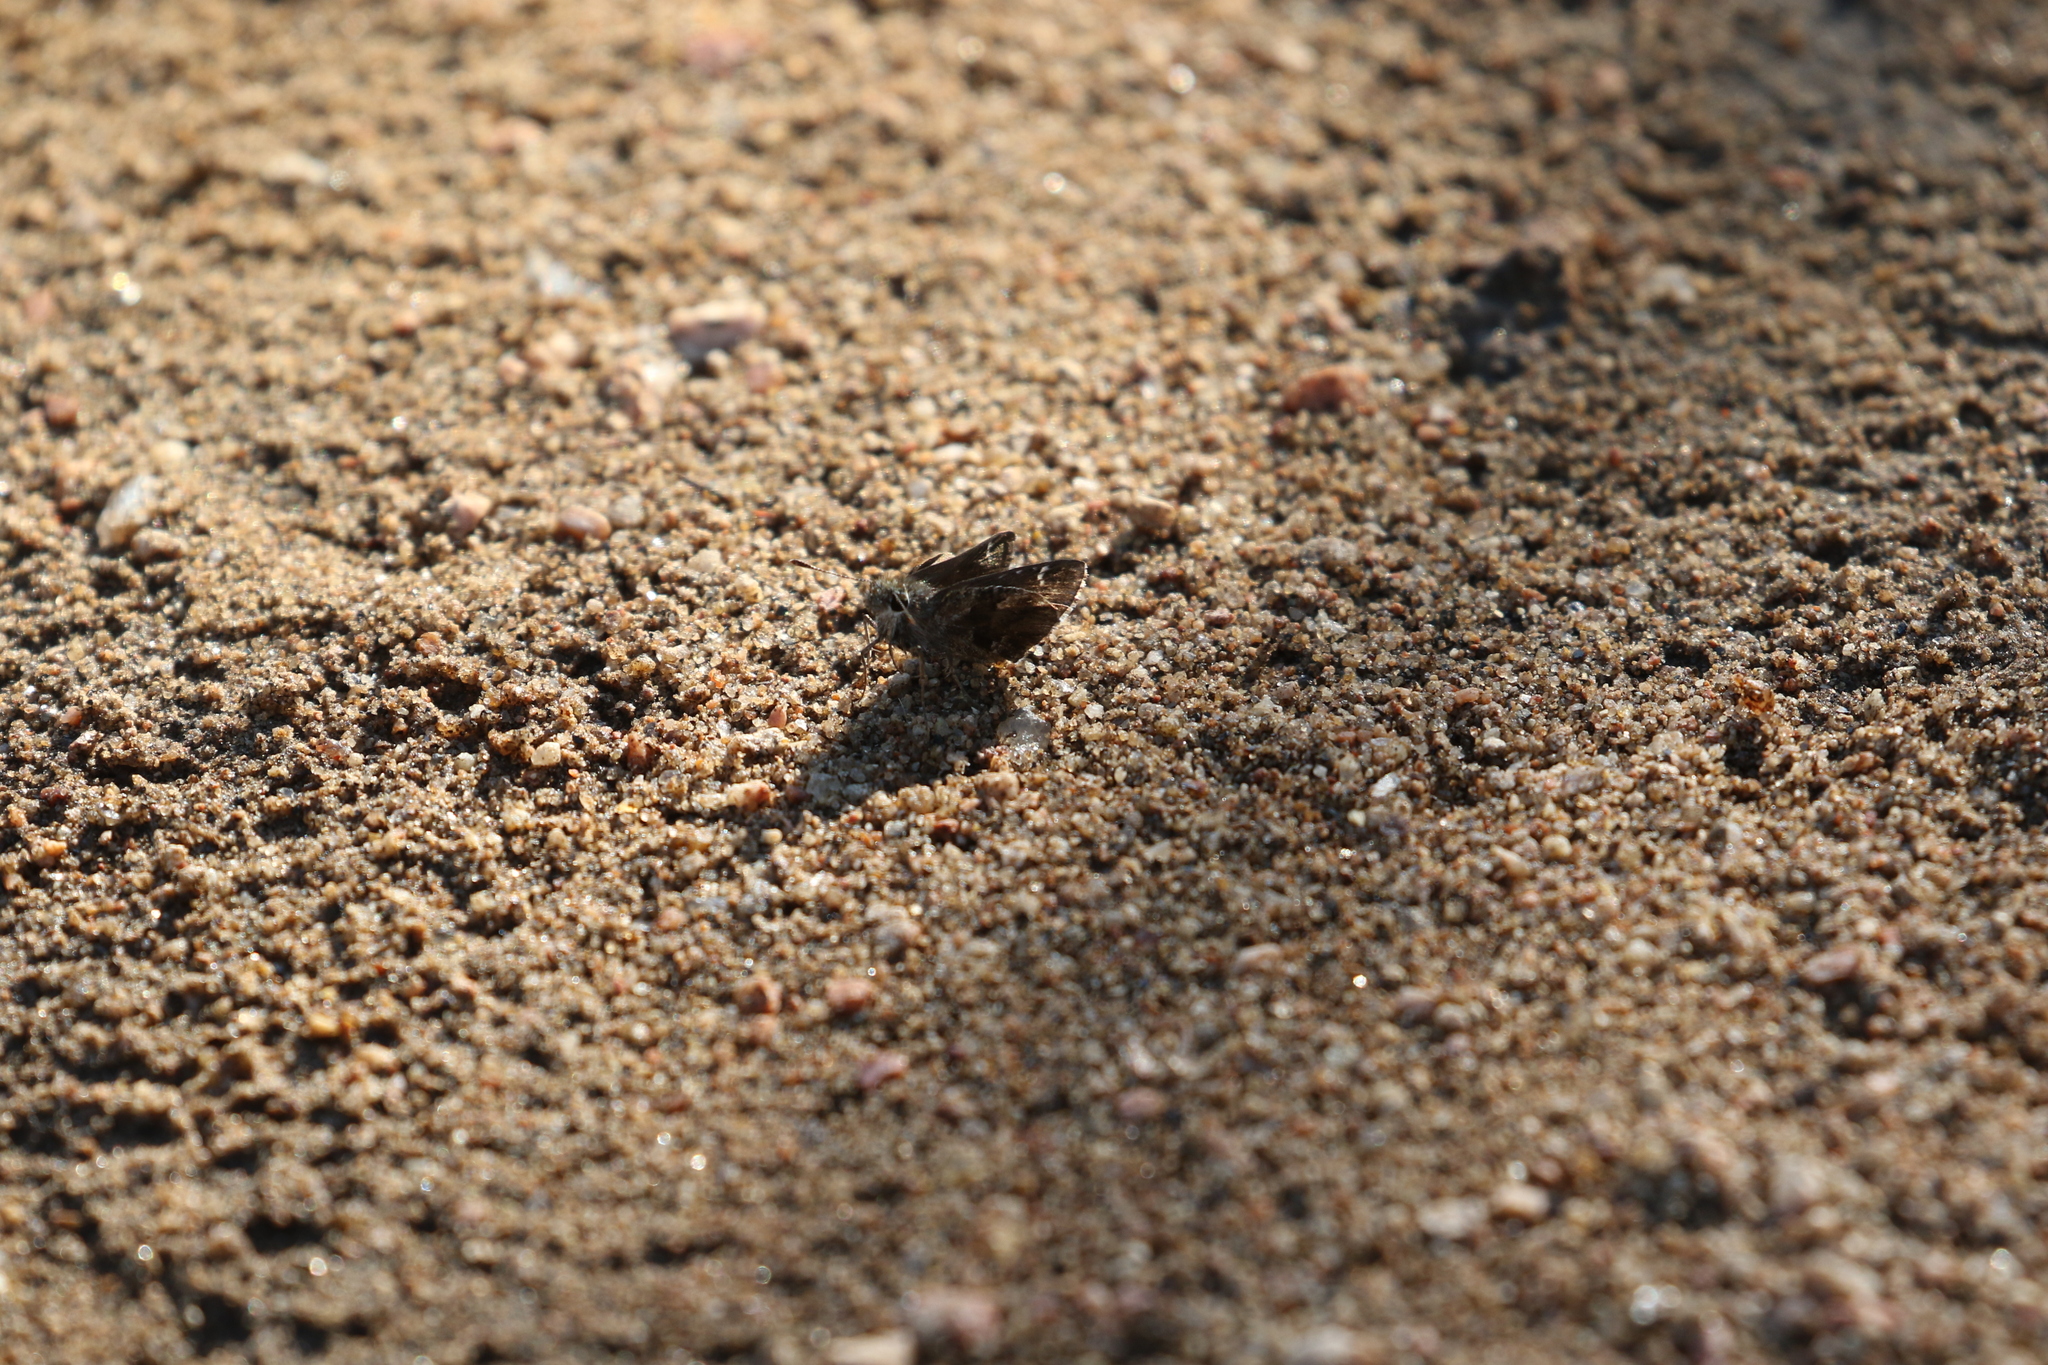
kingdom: Animalia
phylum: Arthropoda
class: Insecta
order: Lepidoptera
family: Hesperiidae
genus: Mastor
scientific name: Mastor nysa
